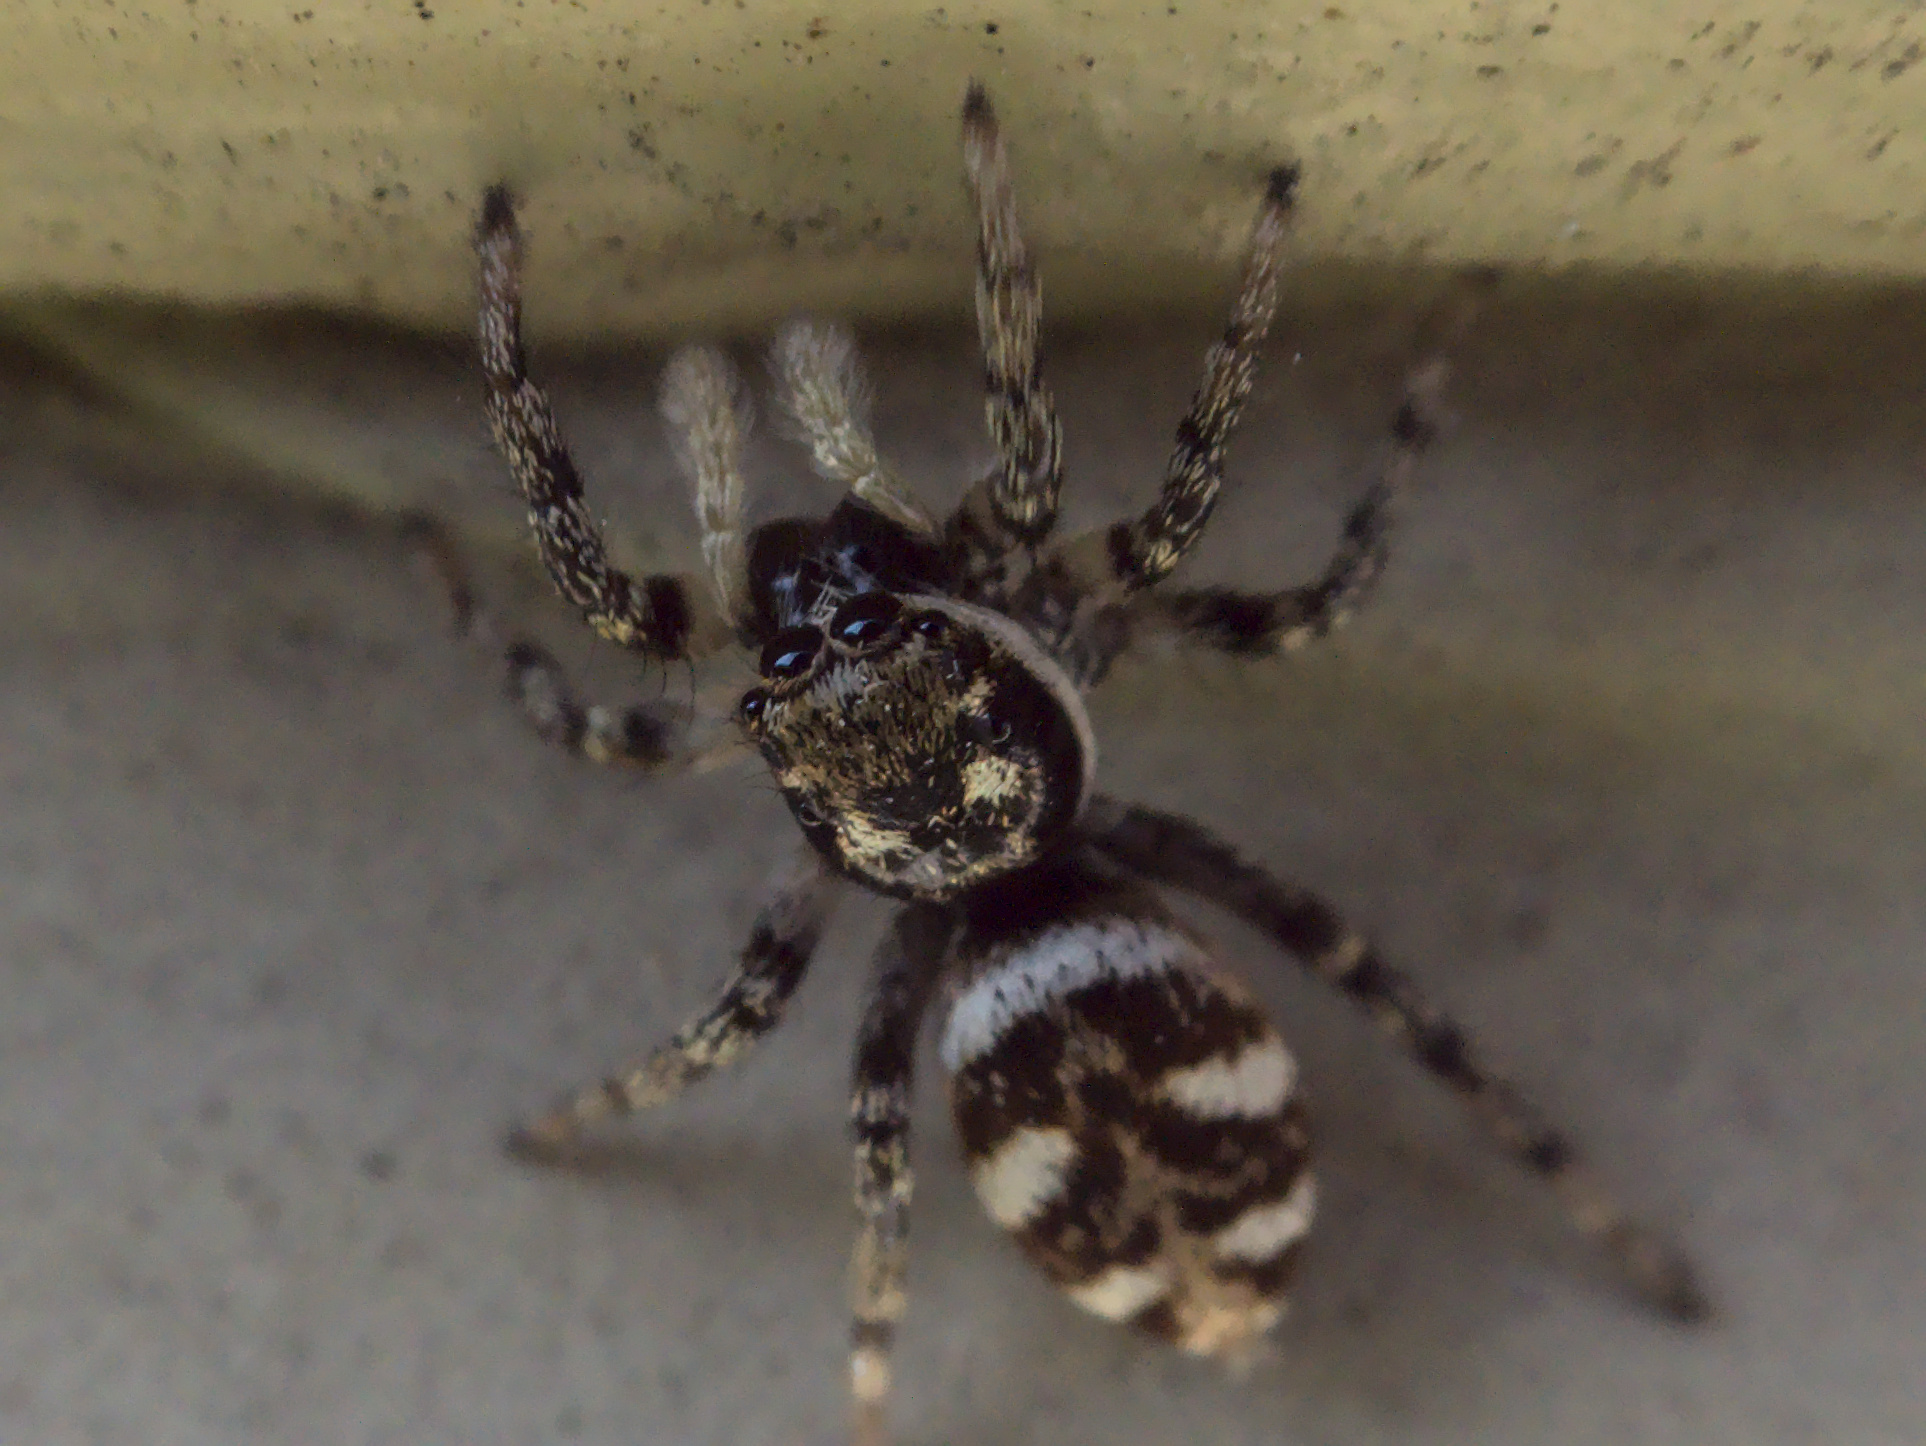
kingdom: Animalia
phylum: Arthropoda
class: Arachnida
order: Araneae
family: Salticidae
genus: Salticus
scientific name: Salticus scenicus
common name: Zebra jumper
